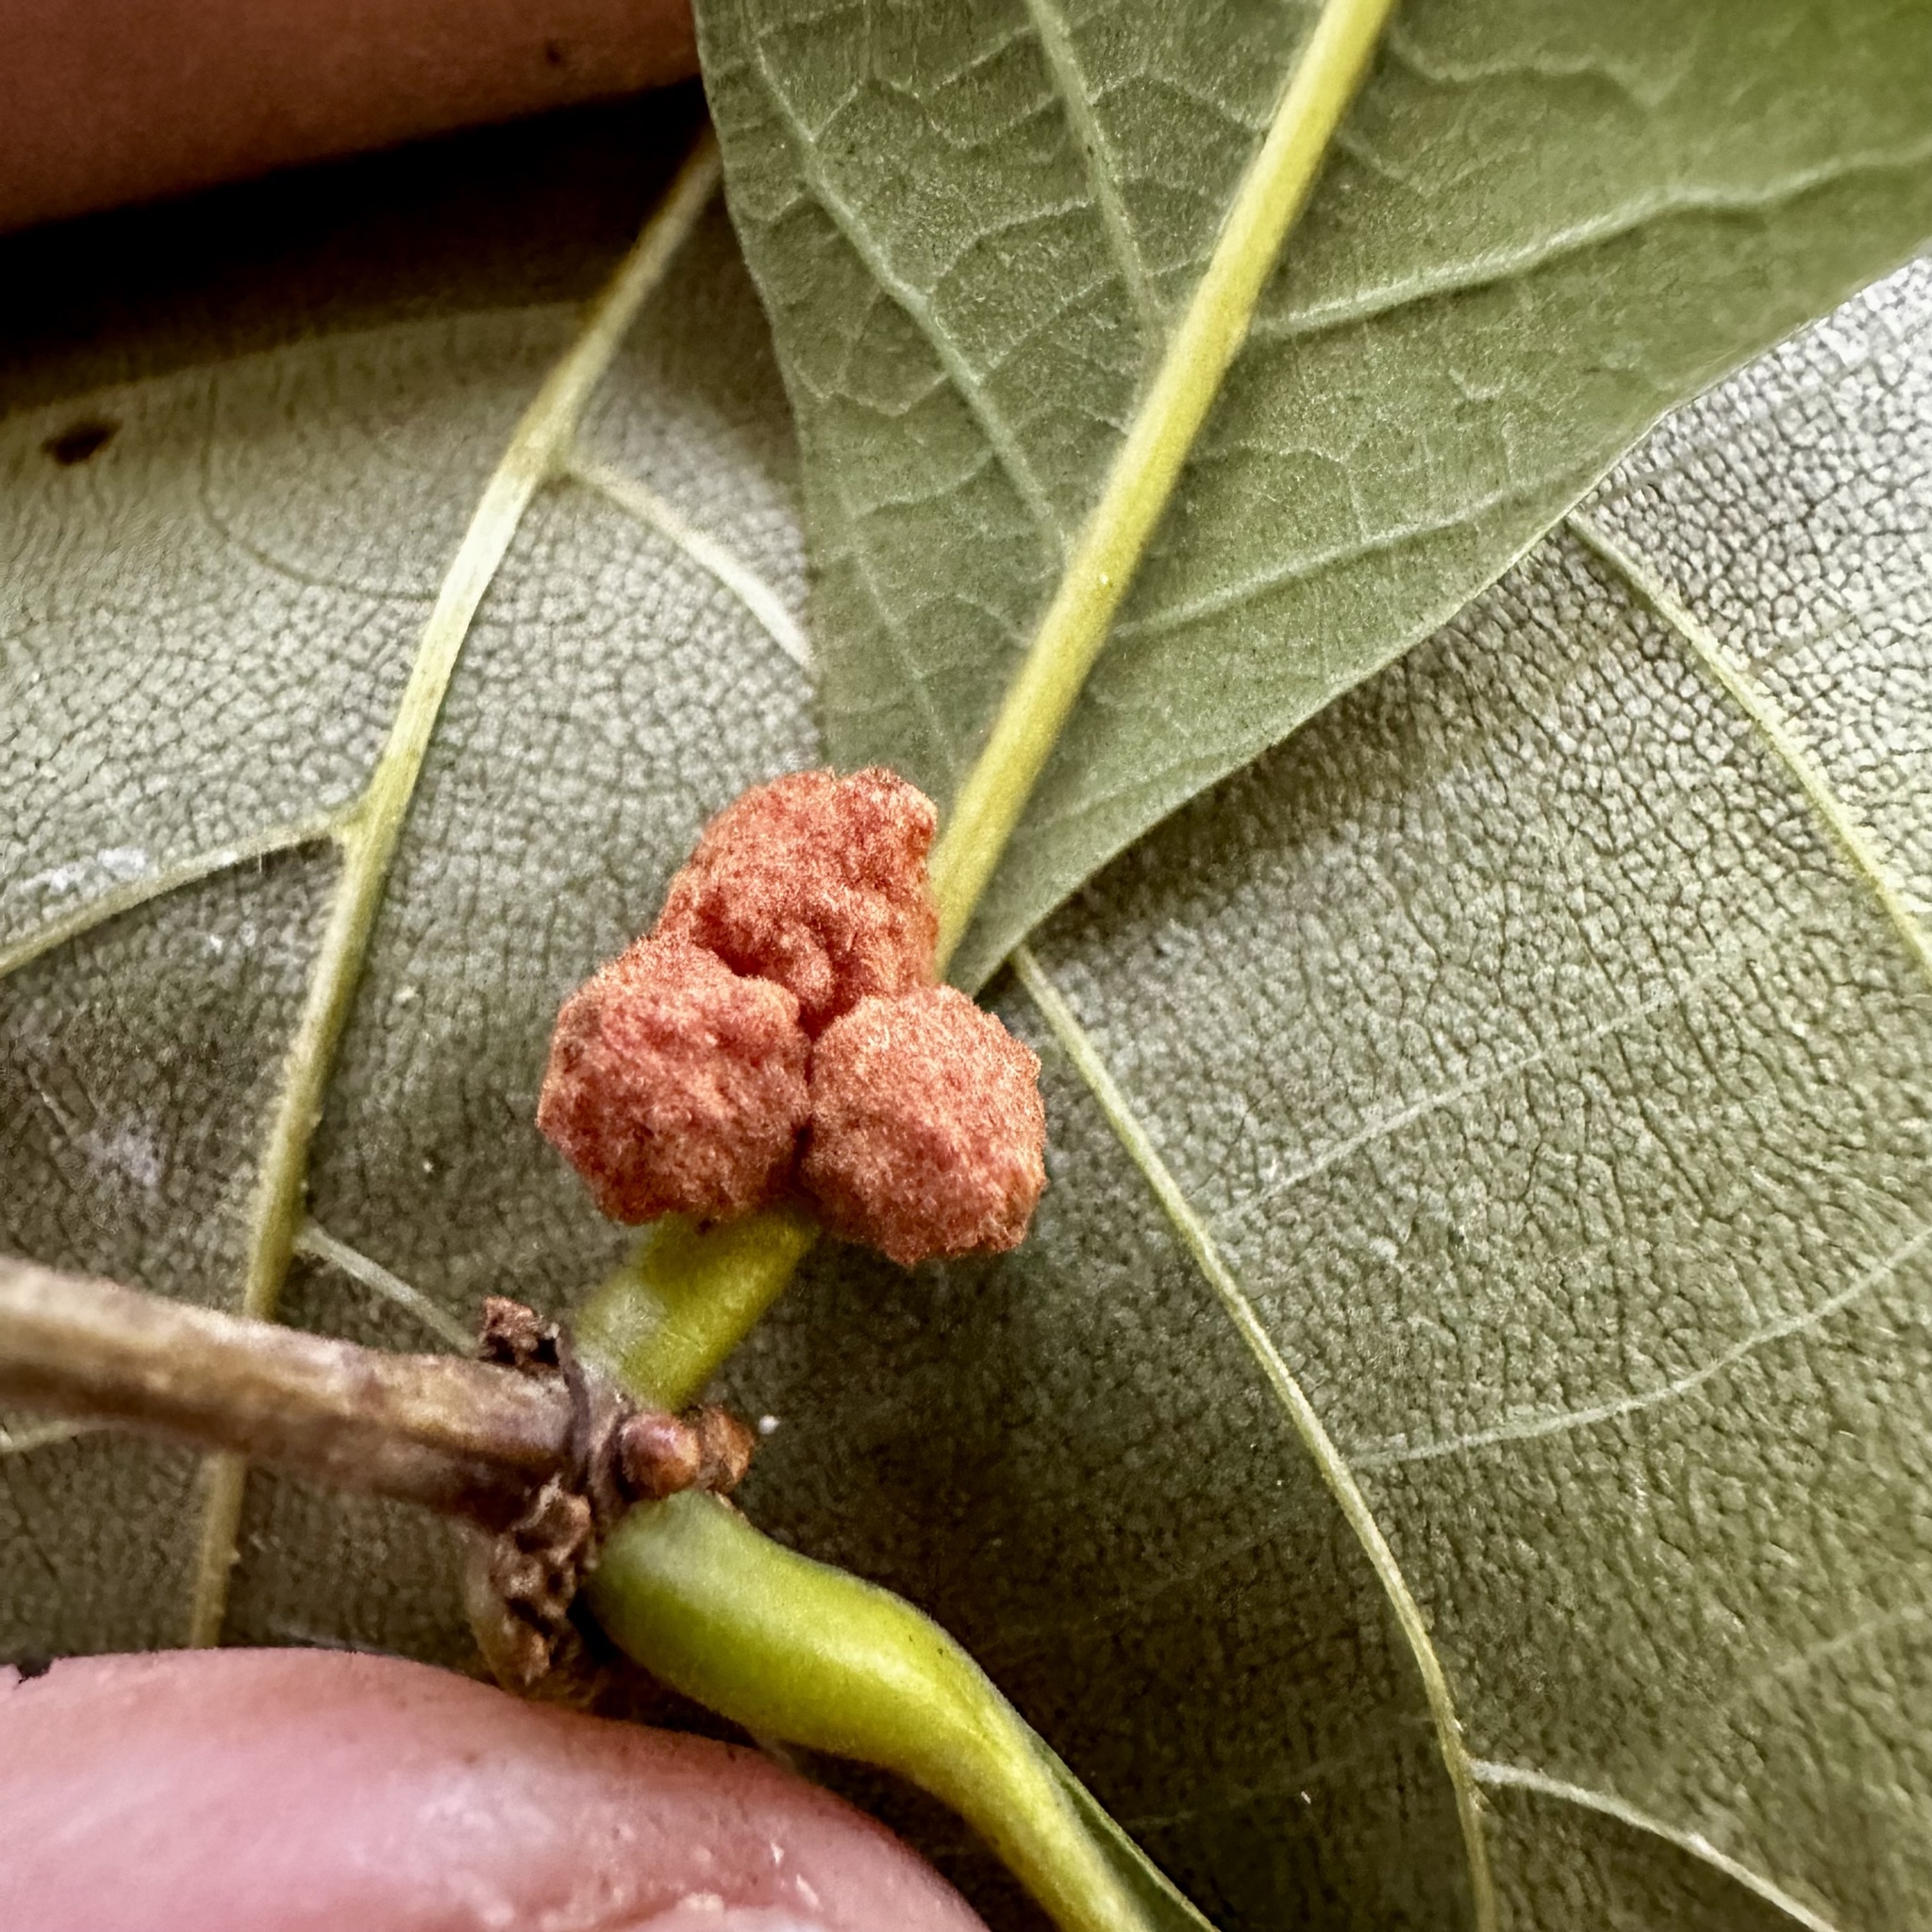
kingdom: Animalia
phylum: Arthropoda
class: Insecta
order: Hymenoptera
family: Cynipidae
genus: Andricus
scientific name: Andricus
